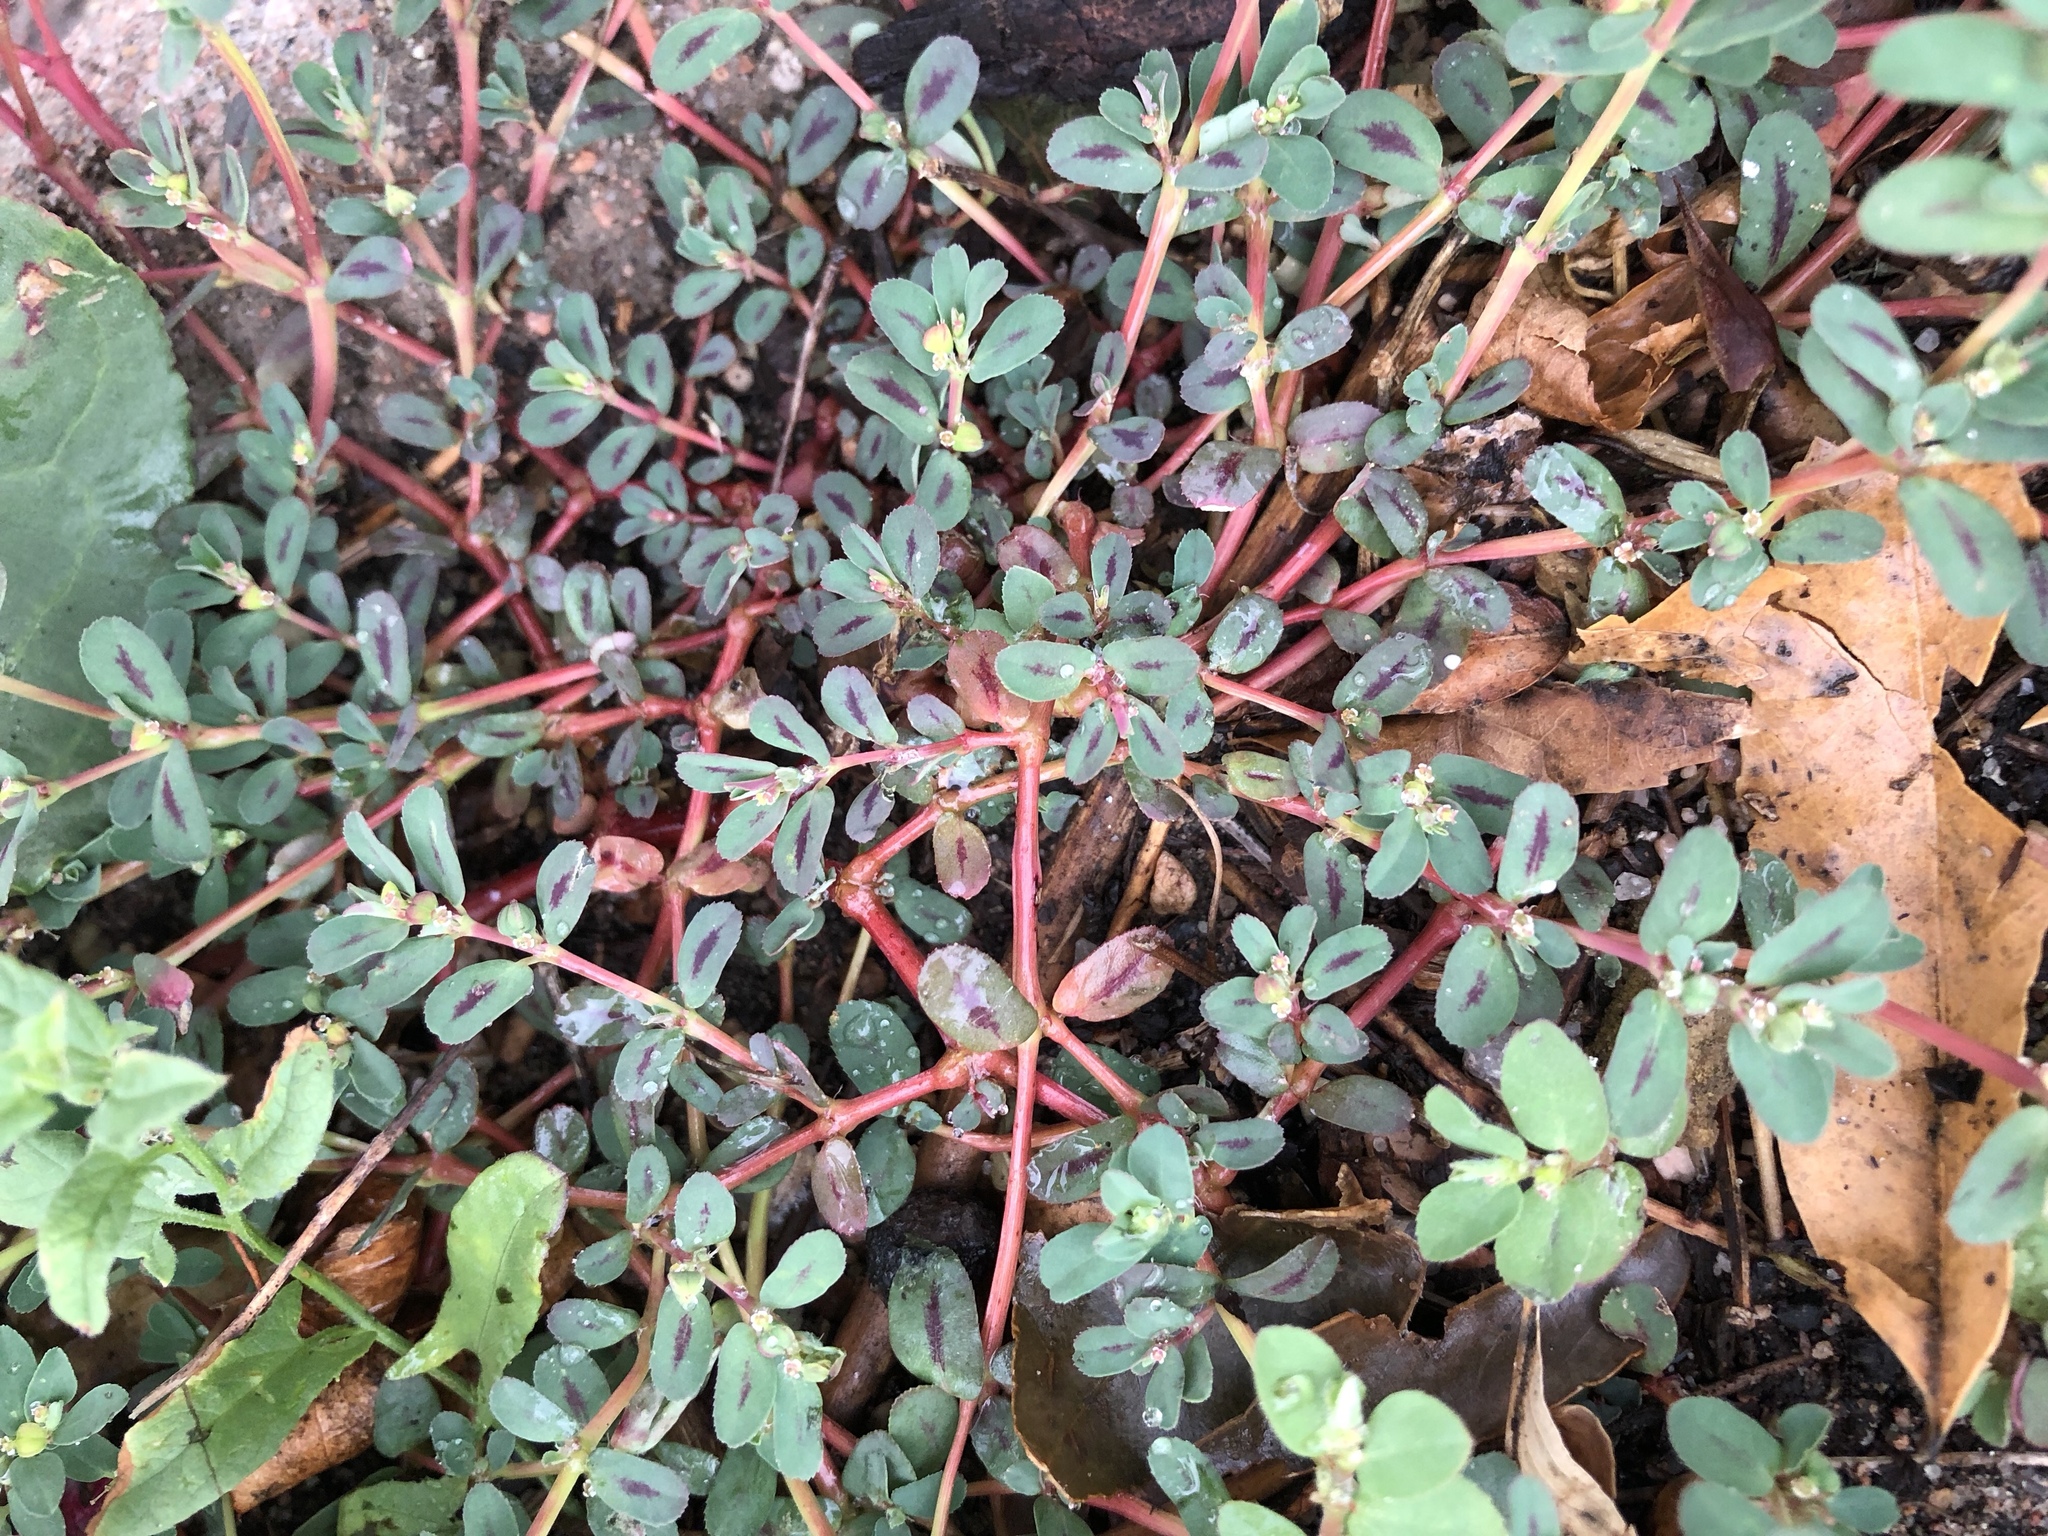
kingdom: Plantae
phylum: Tracheophyta
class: Magnoliopsida
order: Malpighiales
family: Euphorbiaceae
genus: Euphorbia
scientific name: Euphorbia serpillifolia
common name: Thyme-leaf spurge
